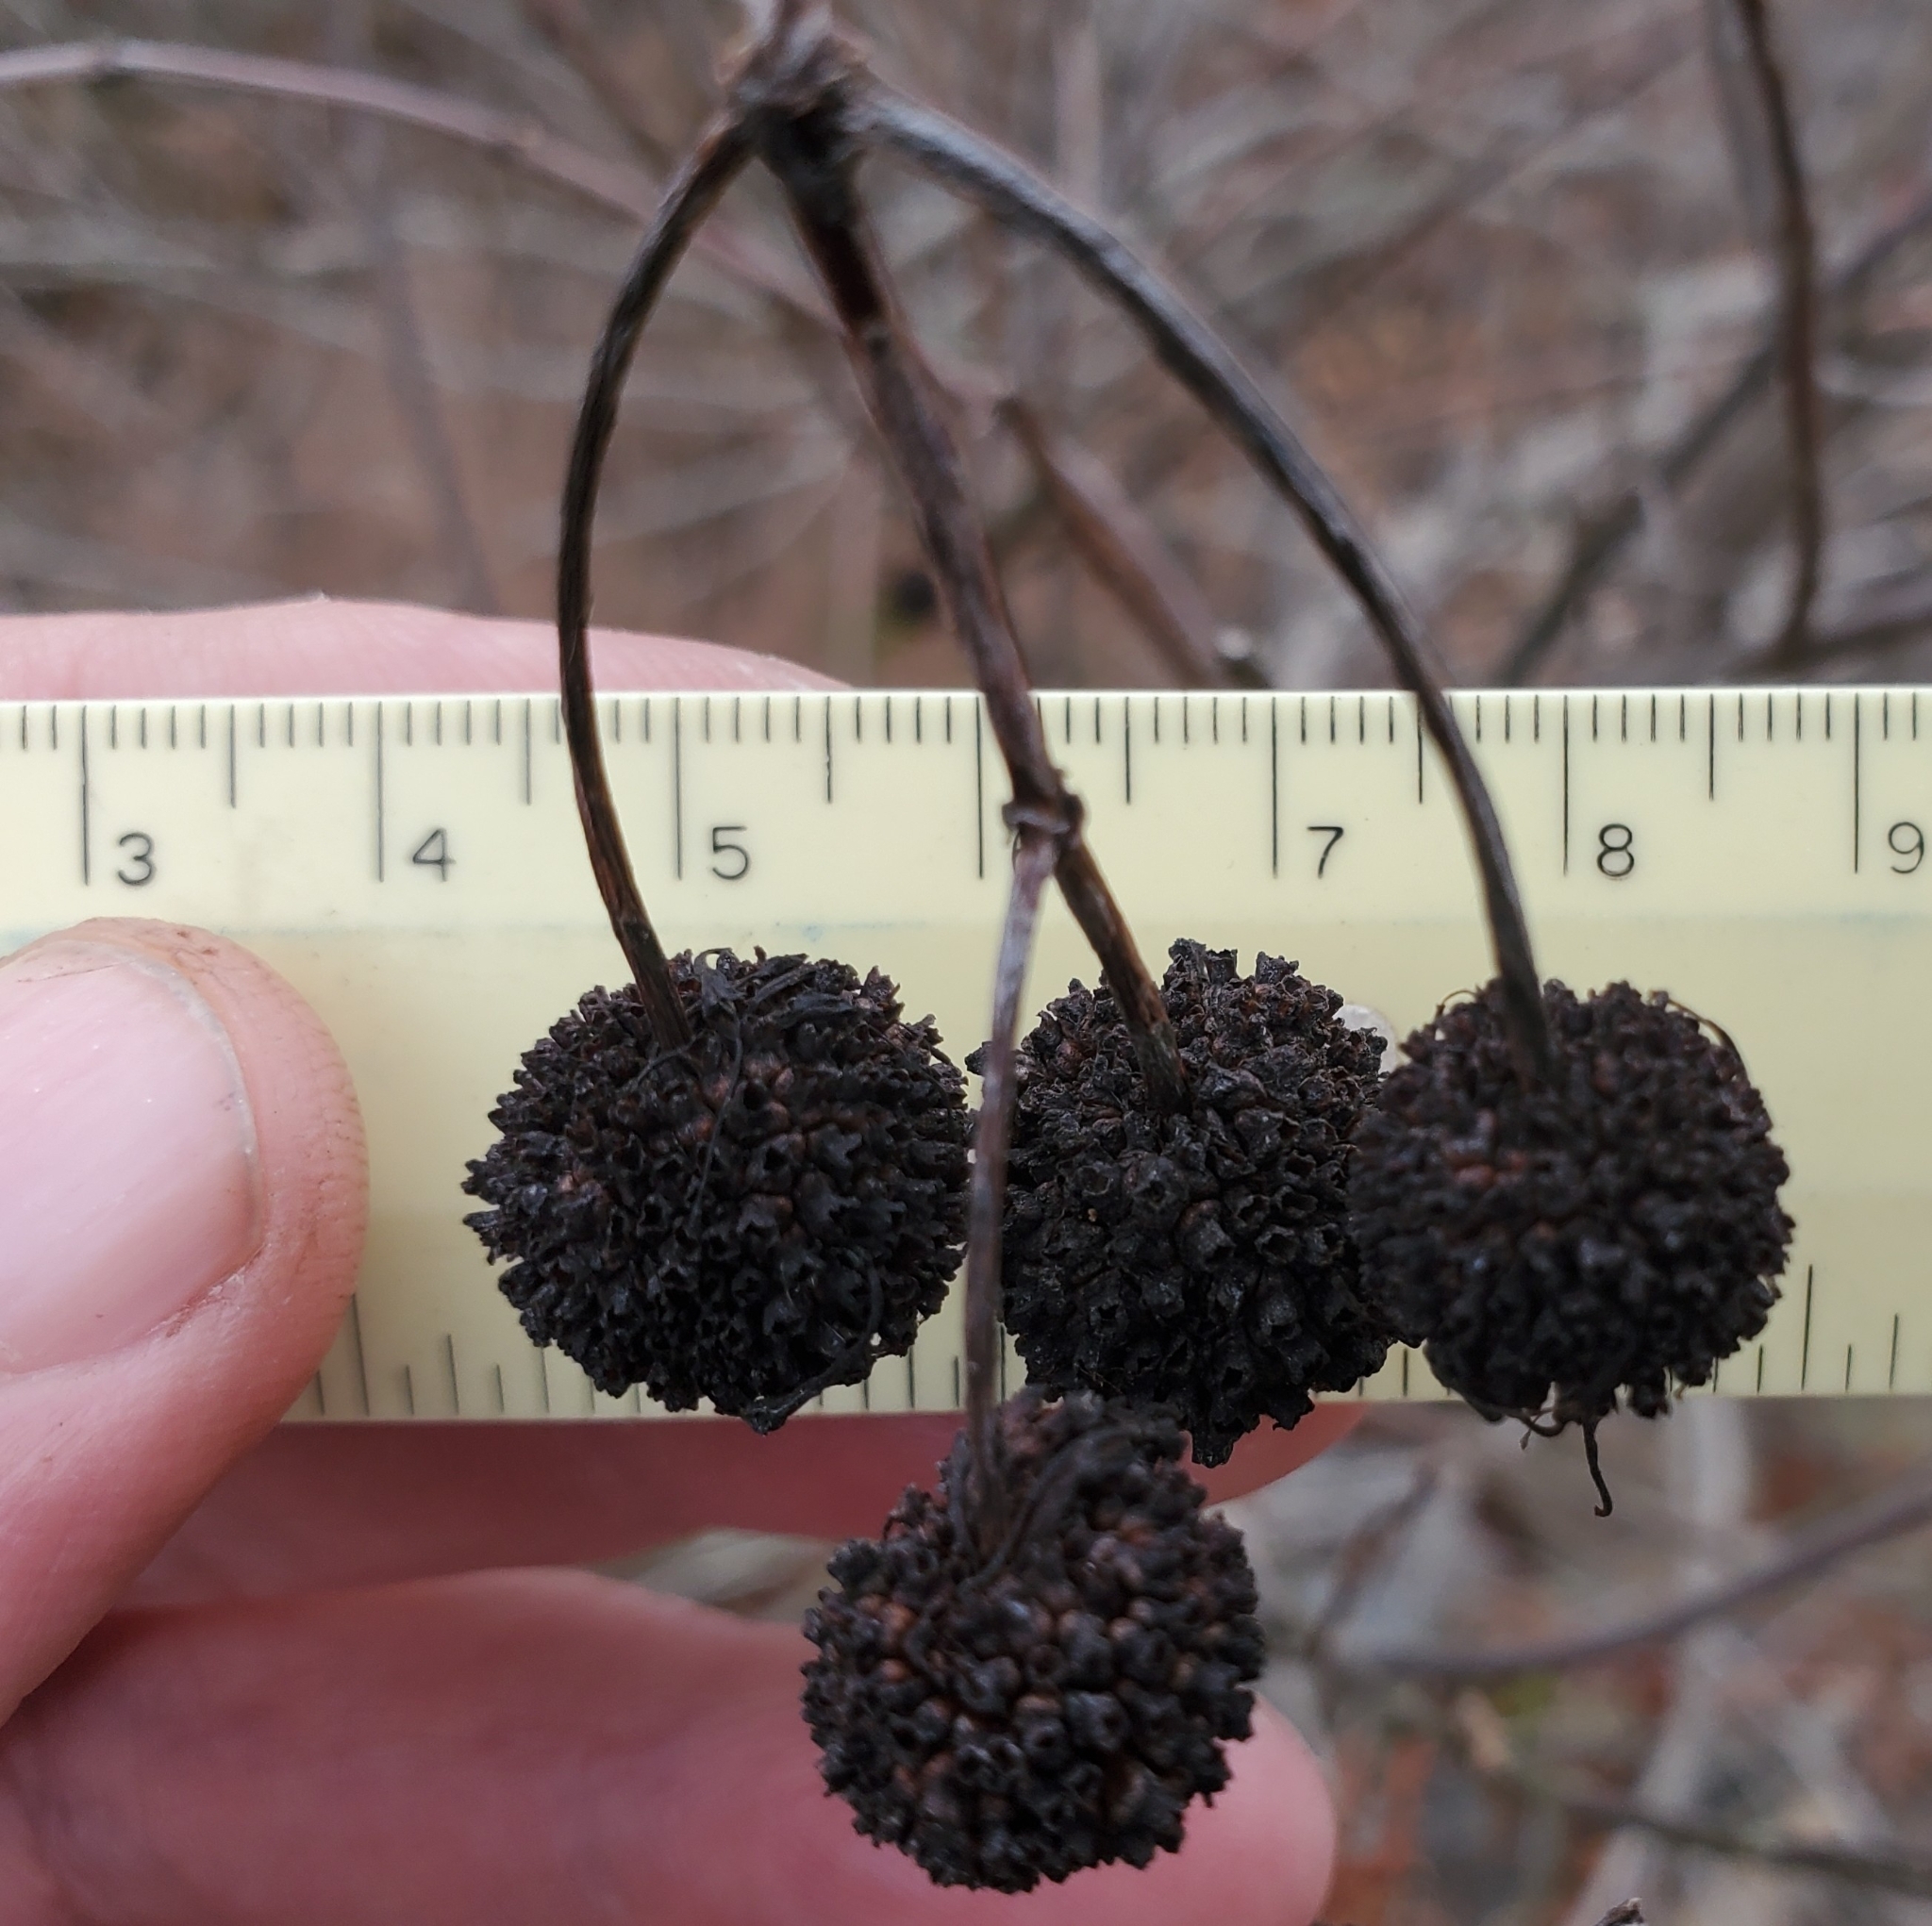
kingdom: Plantae
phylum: Tracheophyta
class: Magnoliopsida
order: Gentianales
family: Rubiaceae
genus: Cephalanthus
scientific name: Cephalanthus occidentalis
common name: Button-willow
